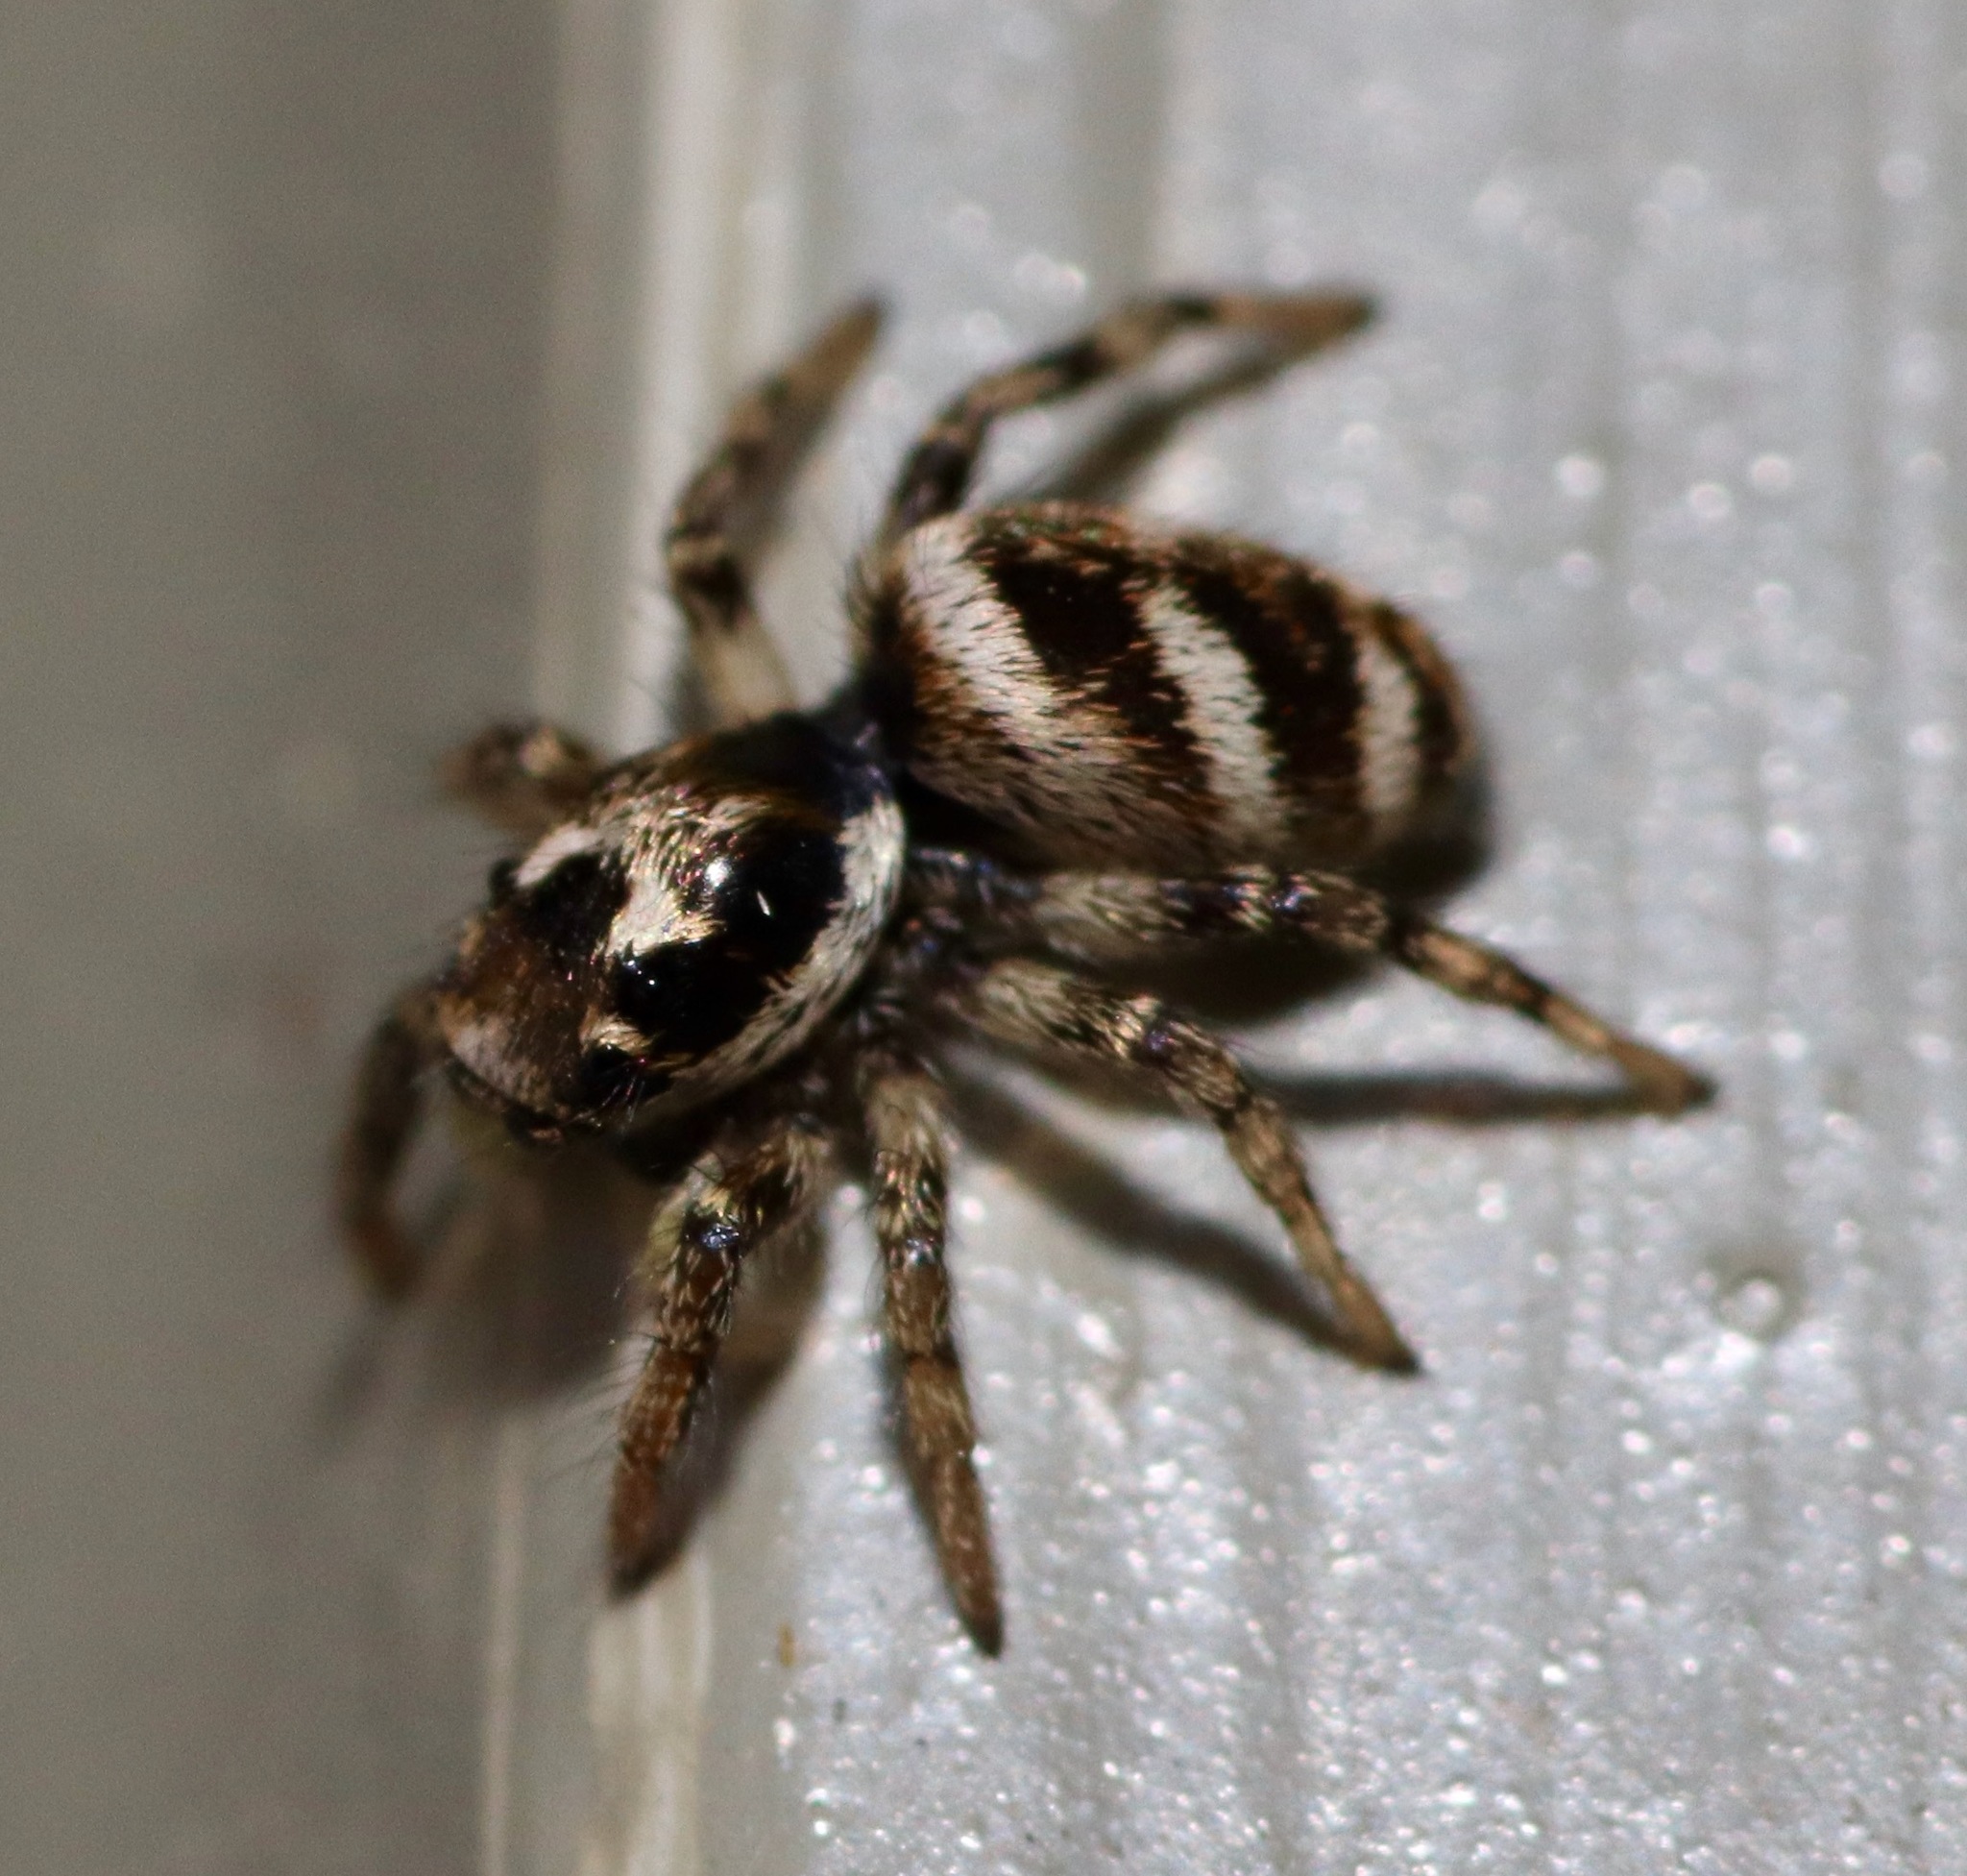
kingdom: Animalia
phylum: Arthropoda
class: Arachnida
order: Araneae
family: Salticidae
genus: Salticus
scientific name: Salticus scenicus
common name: Zebra jumper
